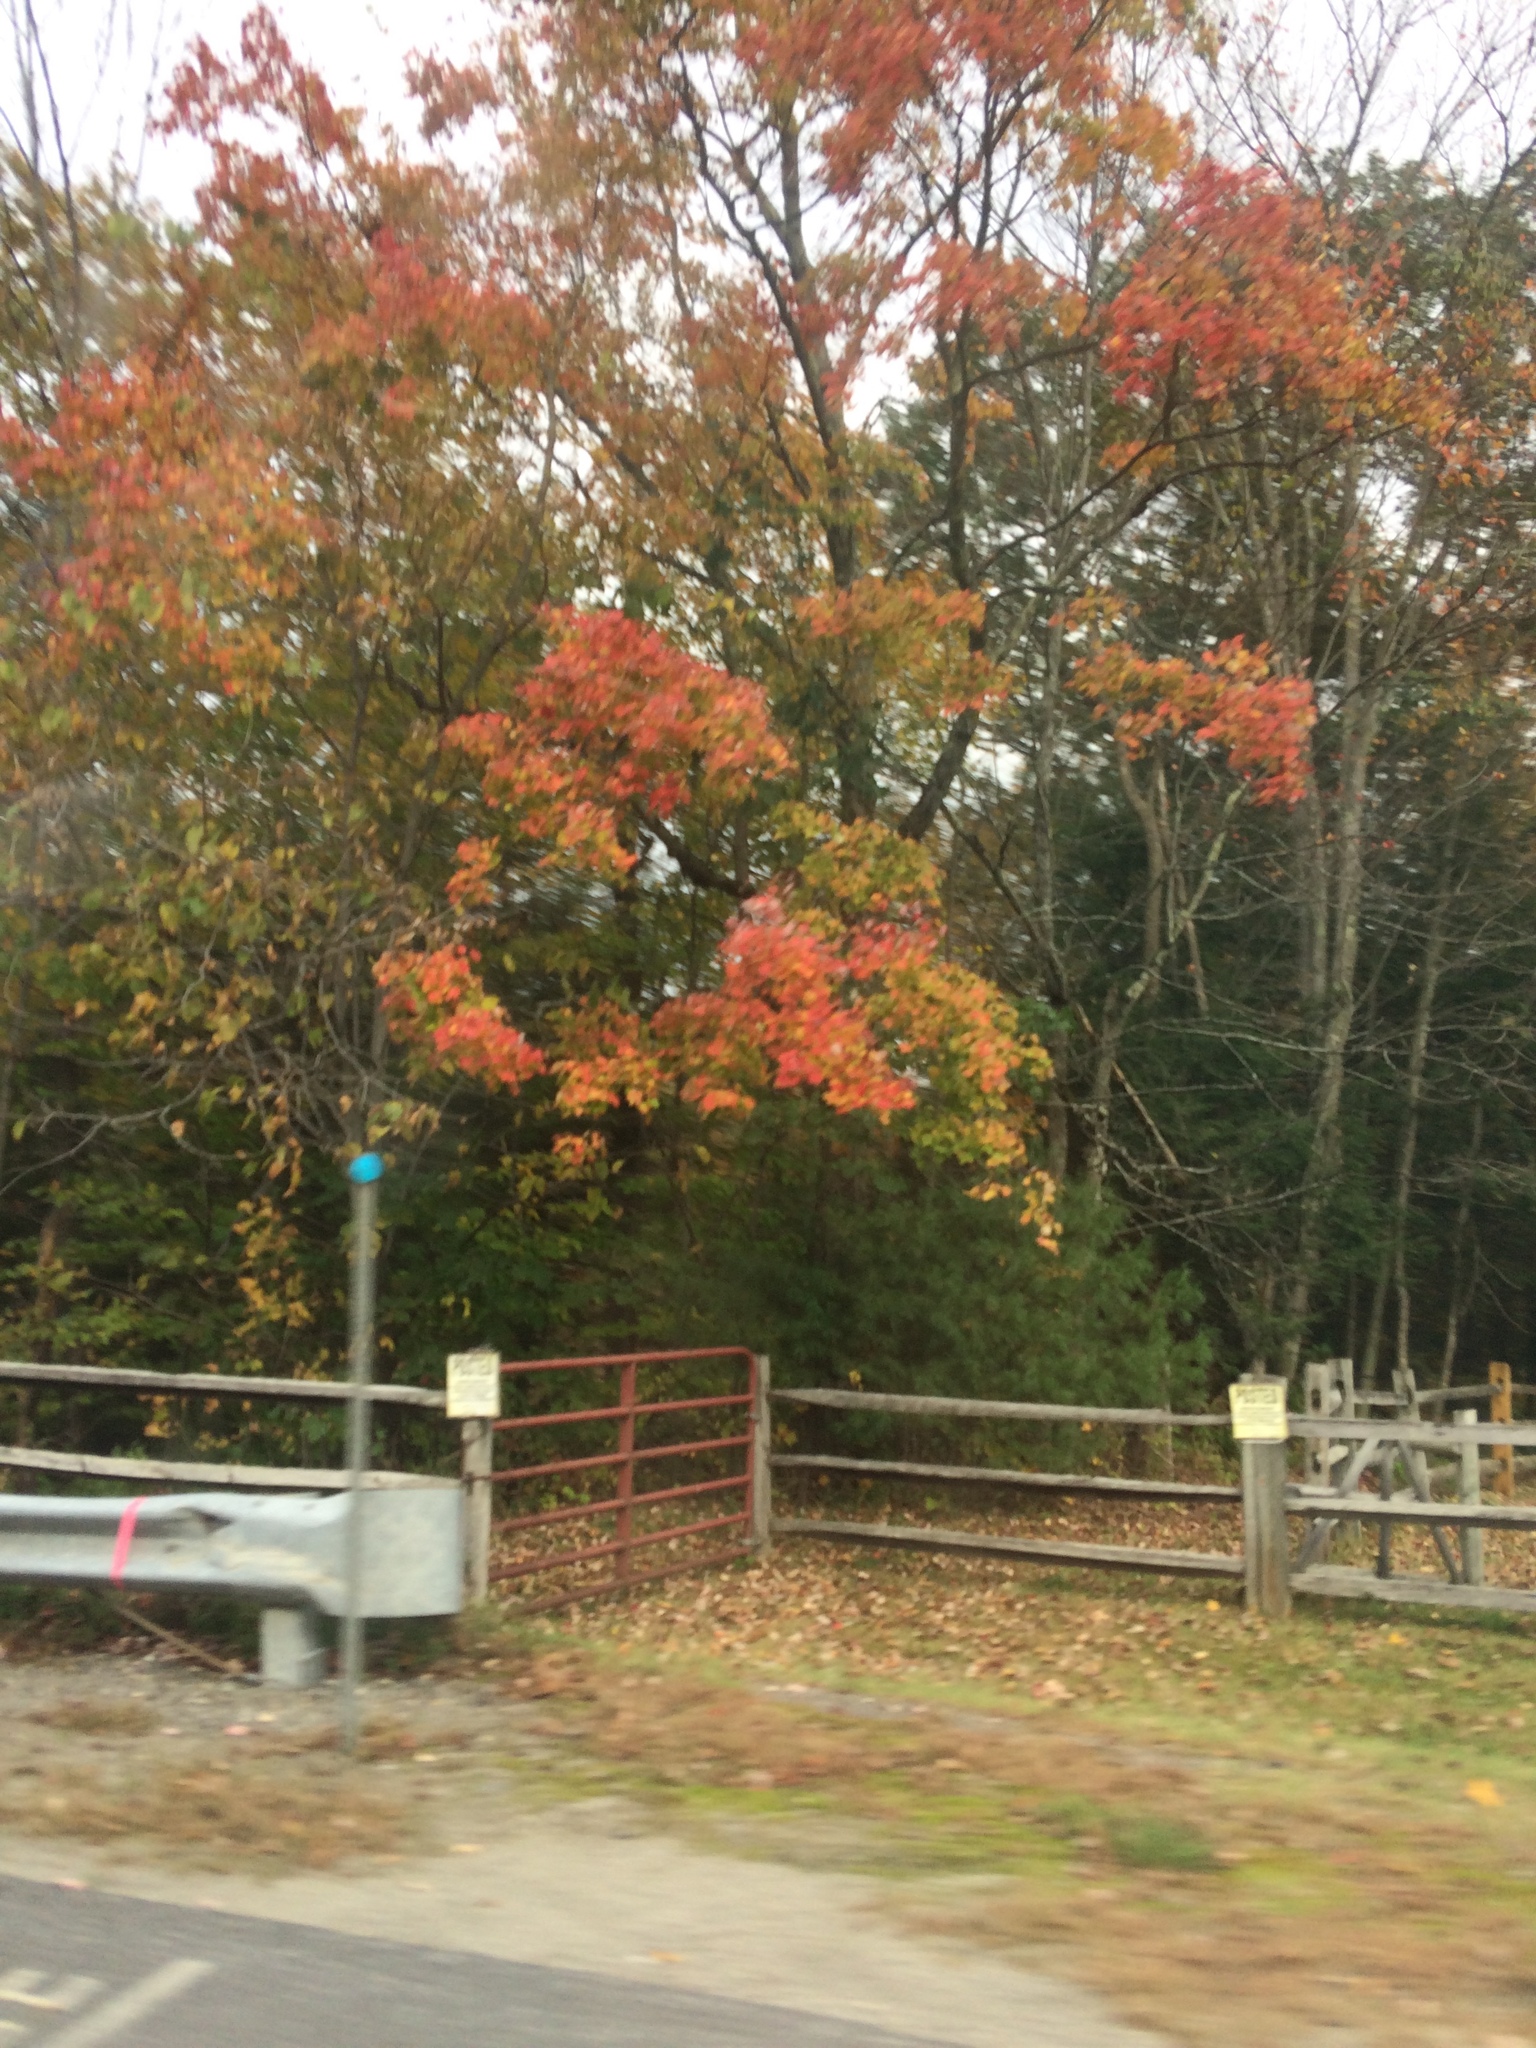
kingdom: Plantae
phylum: Tracheophyta
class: Magnoliopsida
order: Sapindales
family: Sapindaceae
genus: Acer
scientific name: Acer saccharum
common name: Sugar maple
